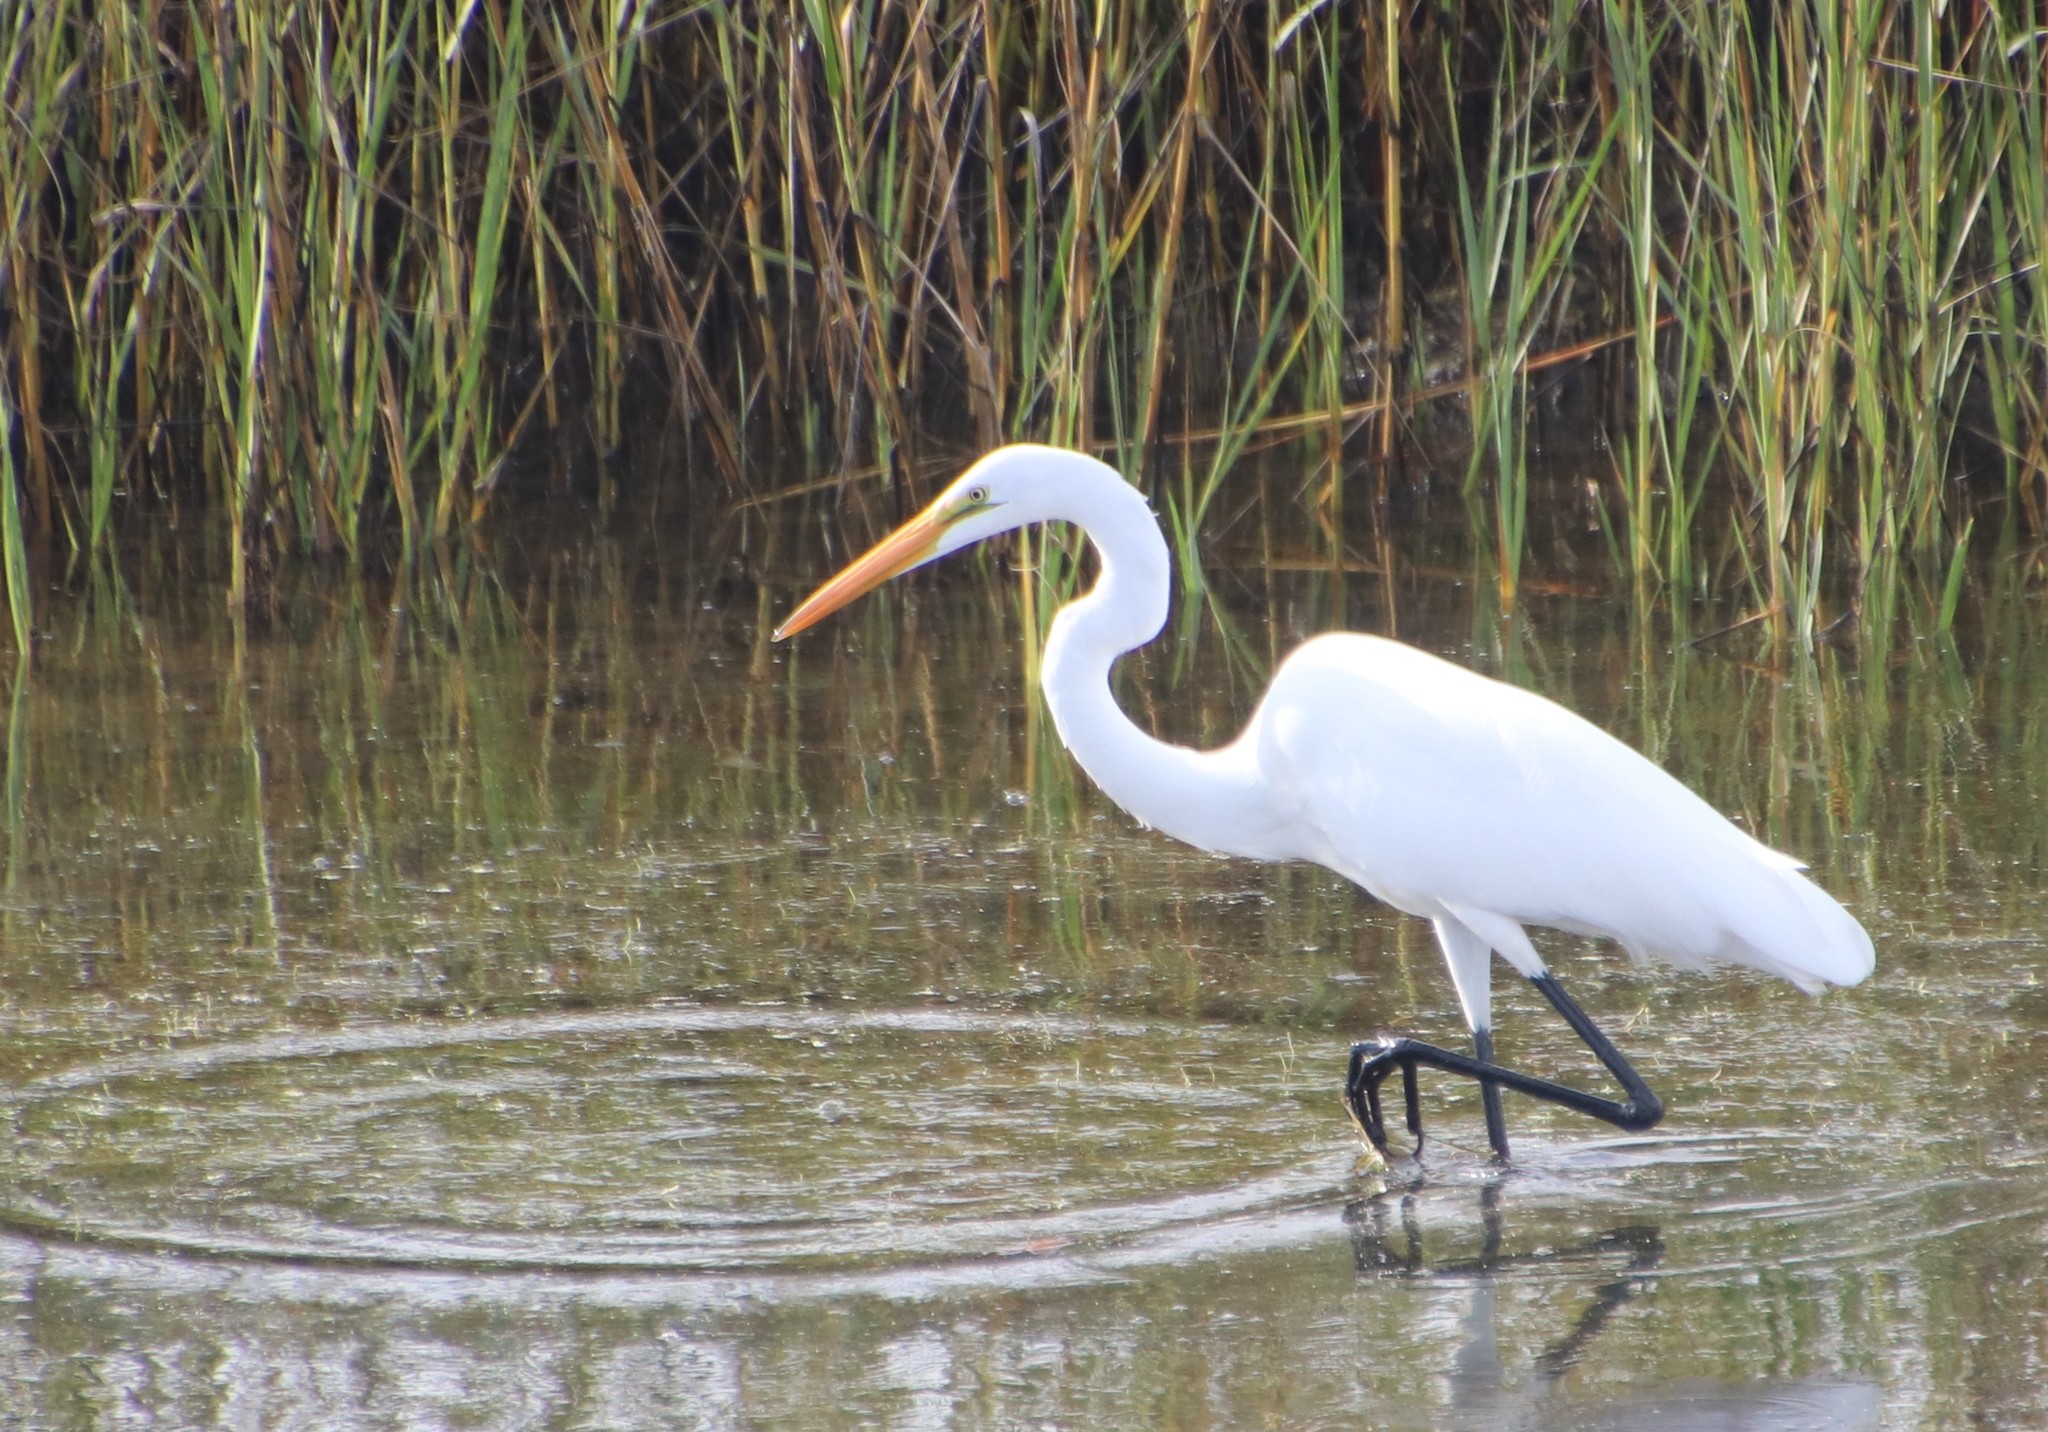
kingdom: Animalia
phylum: Chordata
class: Aves
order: Pelecaniformes
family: Ardeidae
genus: Ardea
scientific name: Ardea alba
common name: Great egret
